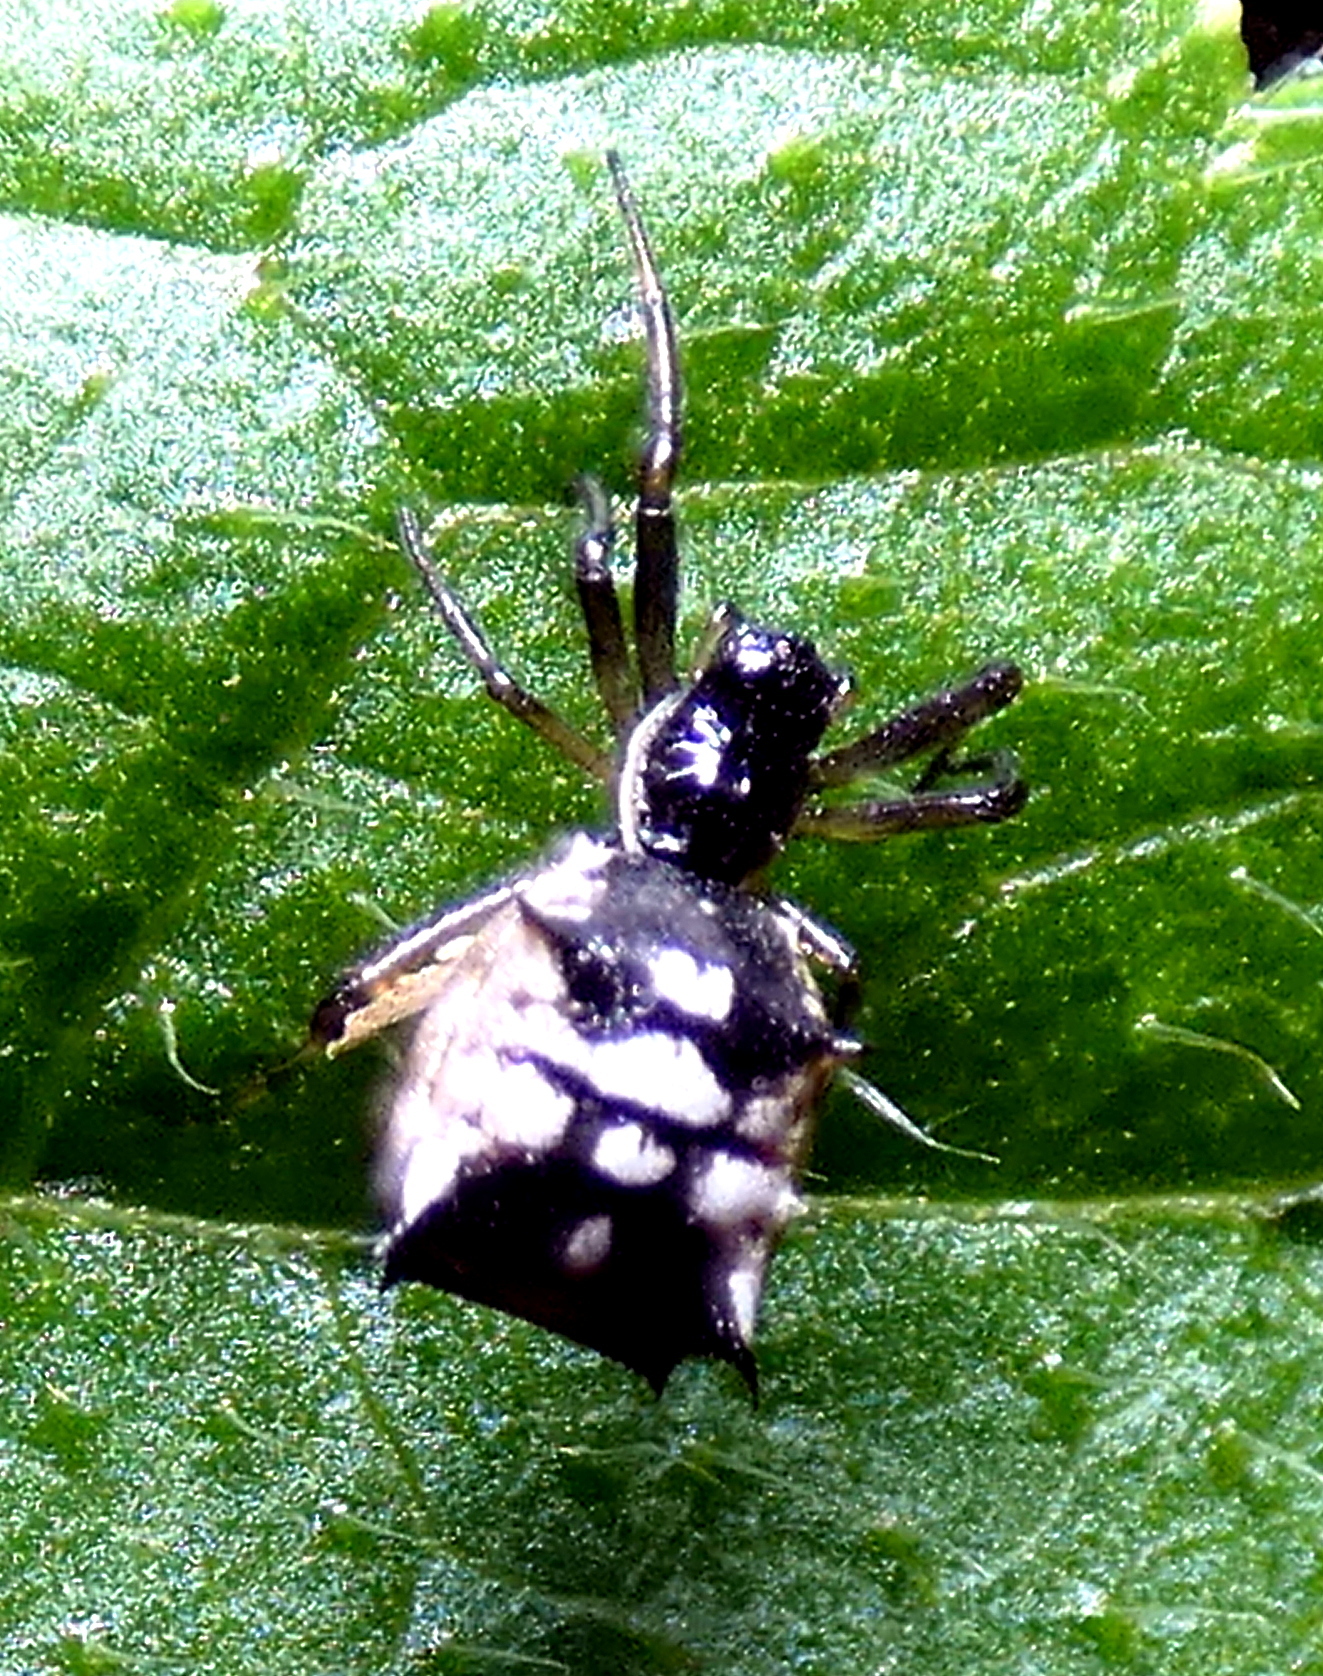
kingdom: Animalia
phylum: Arthropoda
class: Arachnida
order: Araneae
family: Araneidae
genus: Micrathena
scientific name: Micrathena picta
